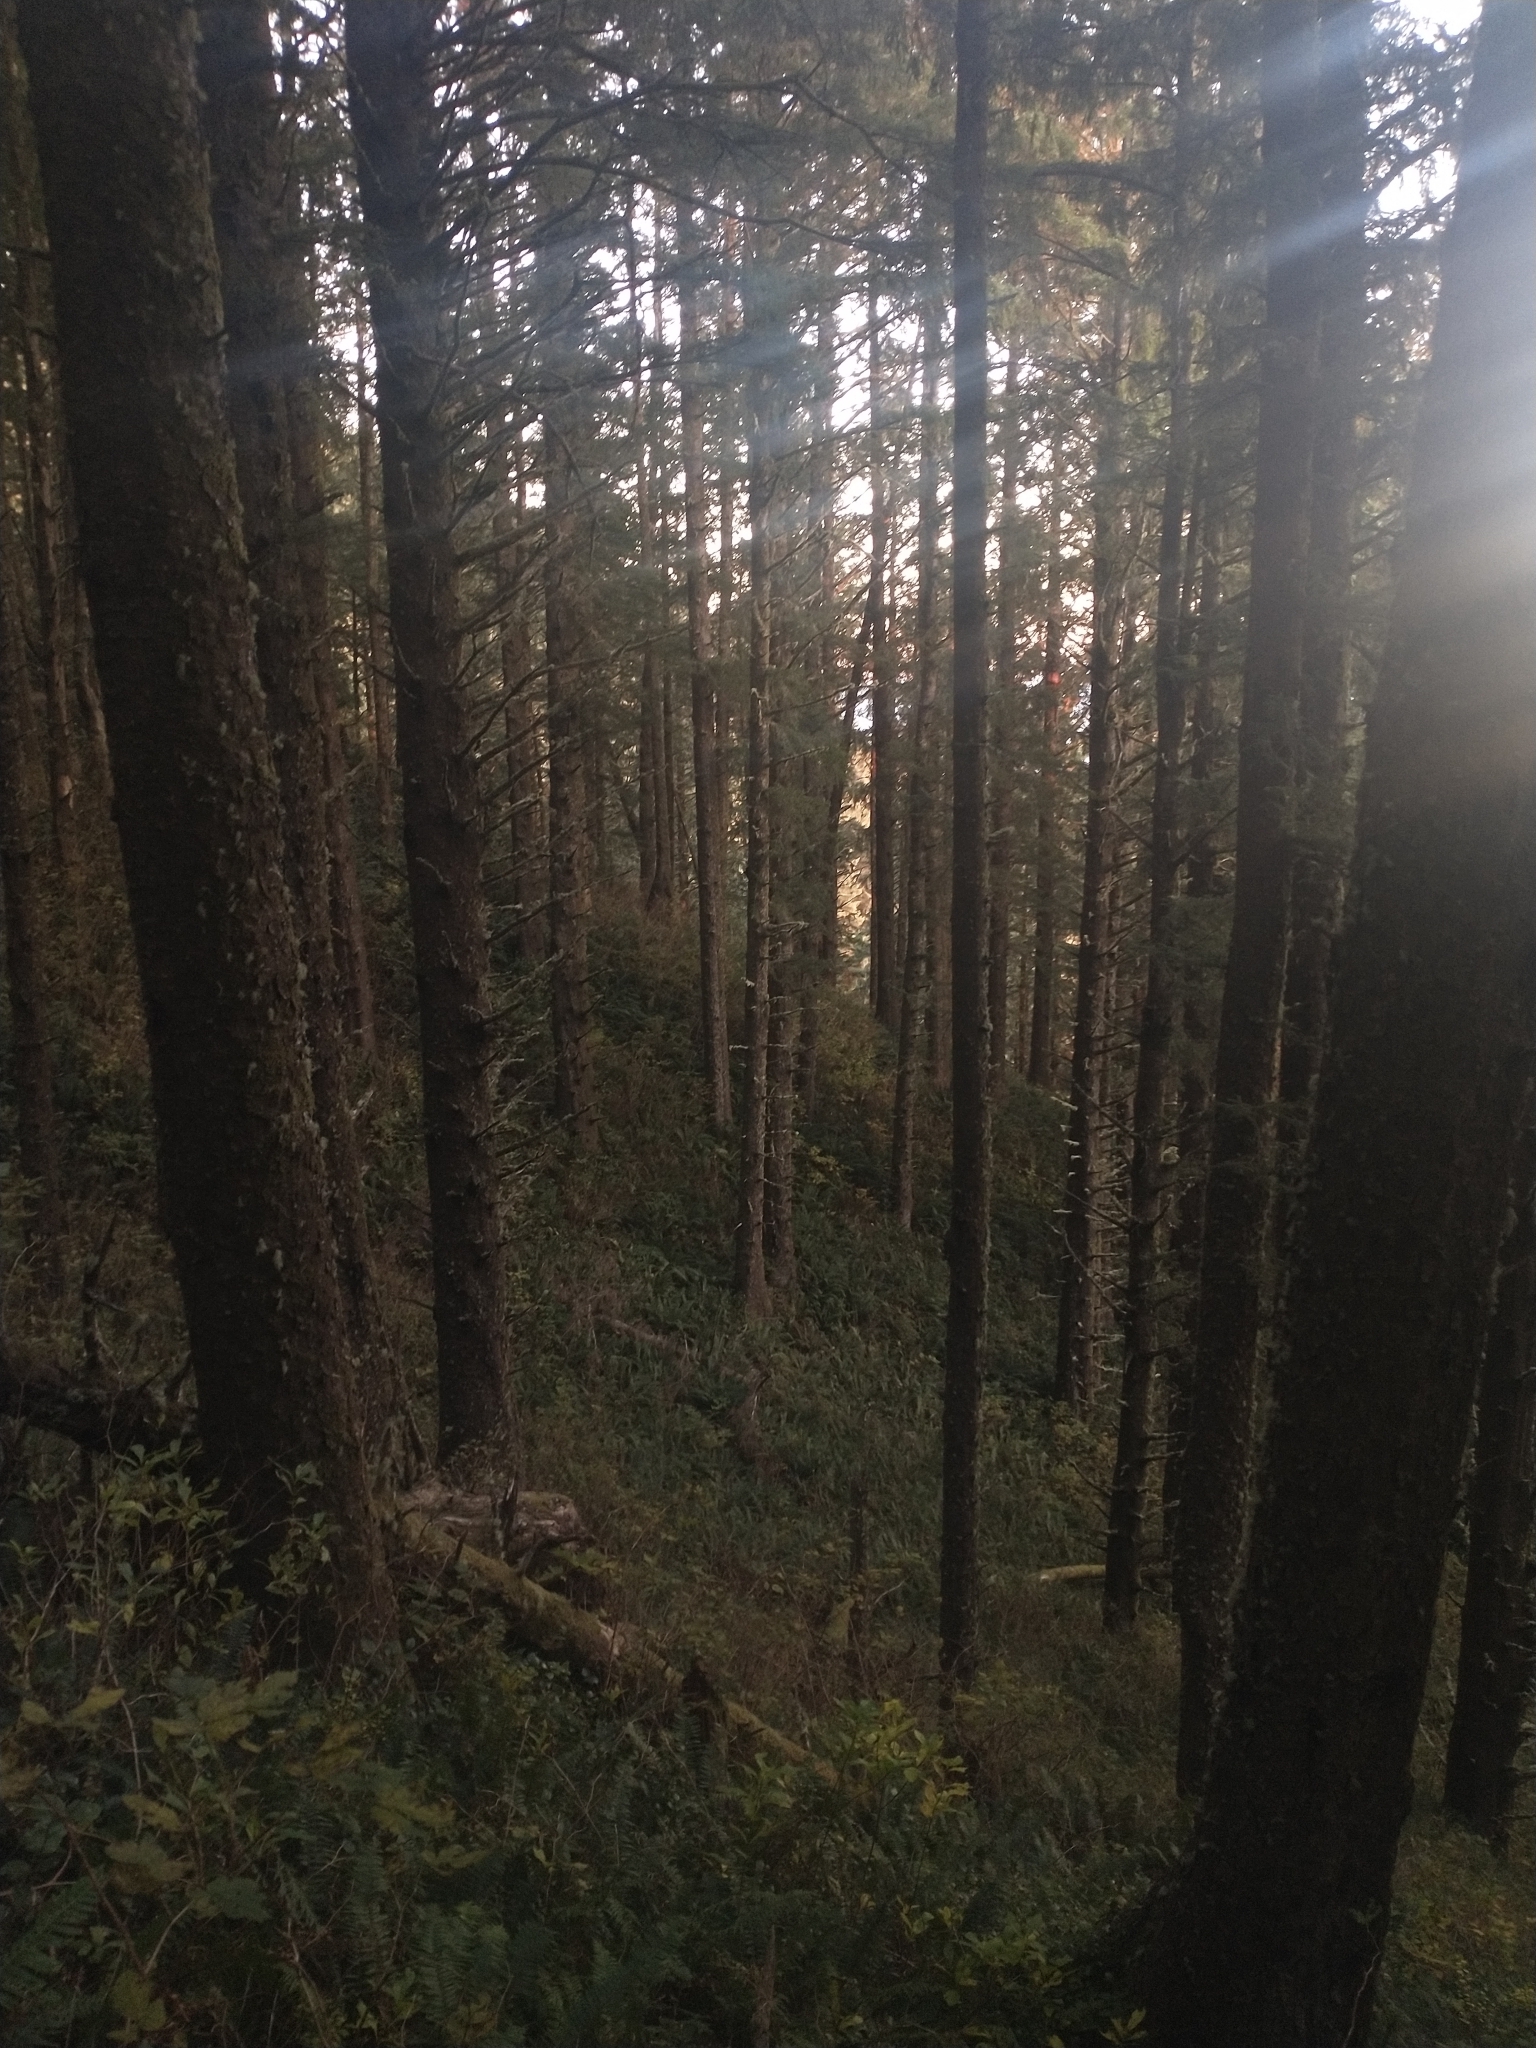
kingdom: Plantae
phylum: Tracheophyta
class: Pinopsida
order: Pinales
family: Pinaceae
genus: Picea
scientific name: Picea sitchensis
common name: Sitka spruce
